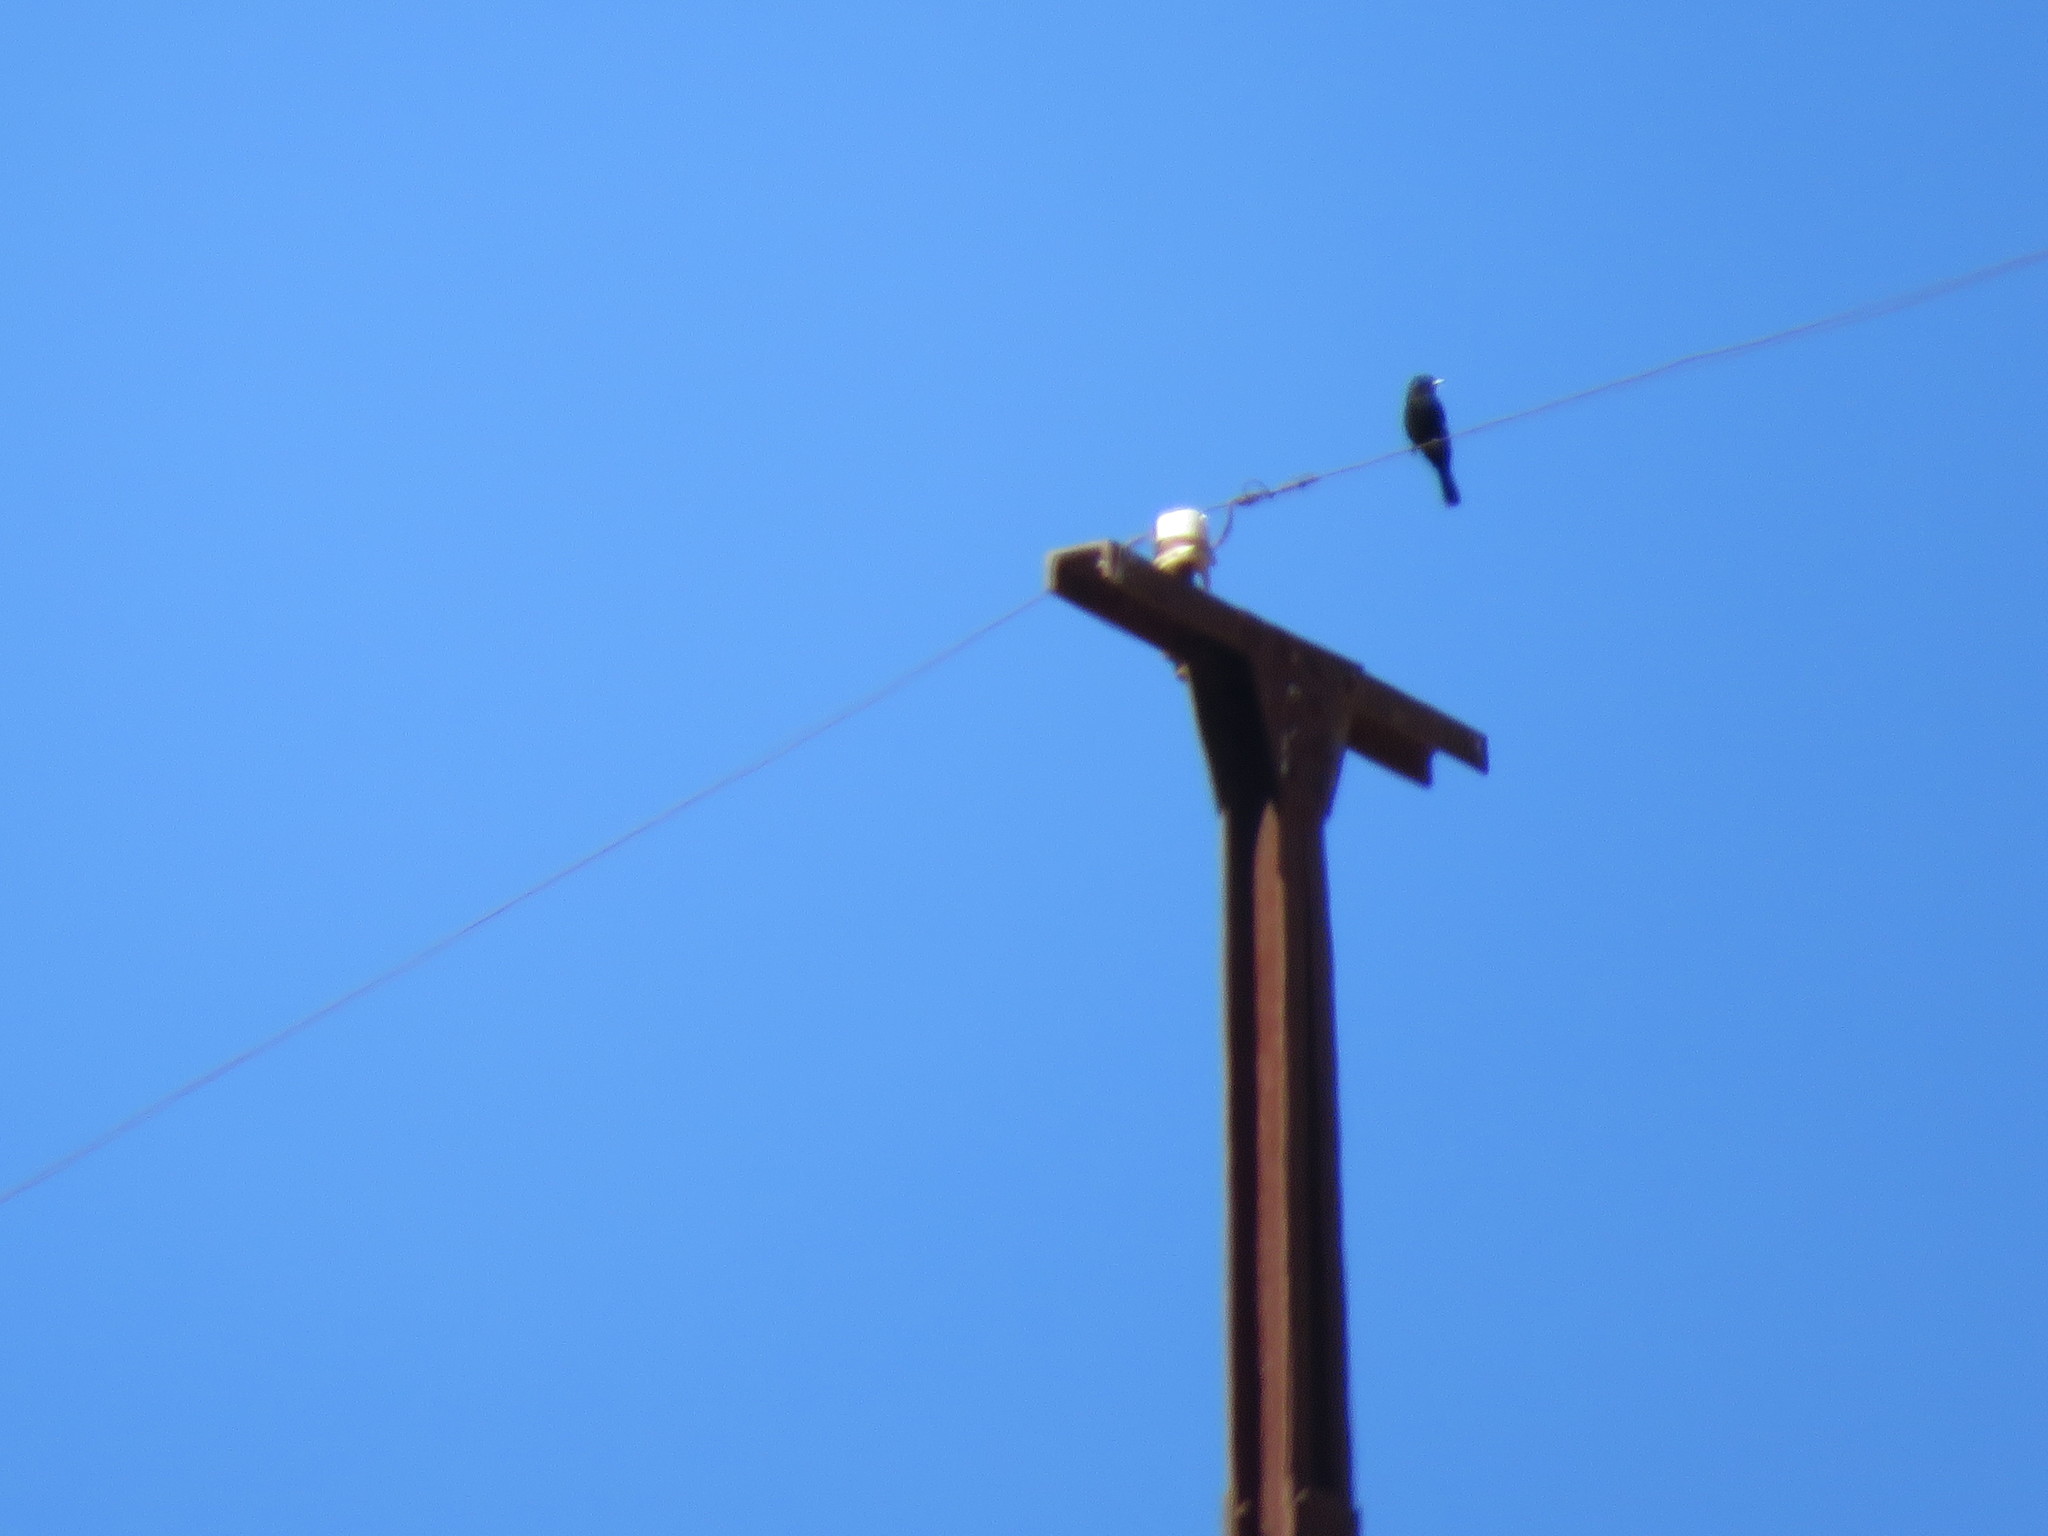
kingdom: Animalia
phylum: Chordata
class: Aves
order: Passeriformes
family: Tyrannidae
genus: Knipolegus
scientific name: Knipolegus aterrimus
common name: White-winged black tyrant
